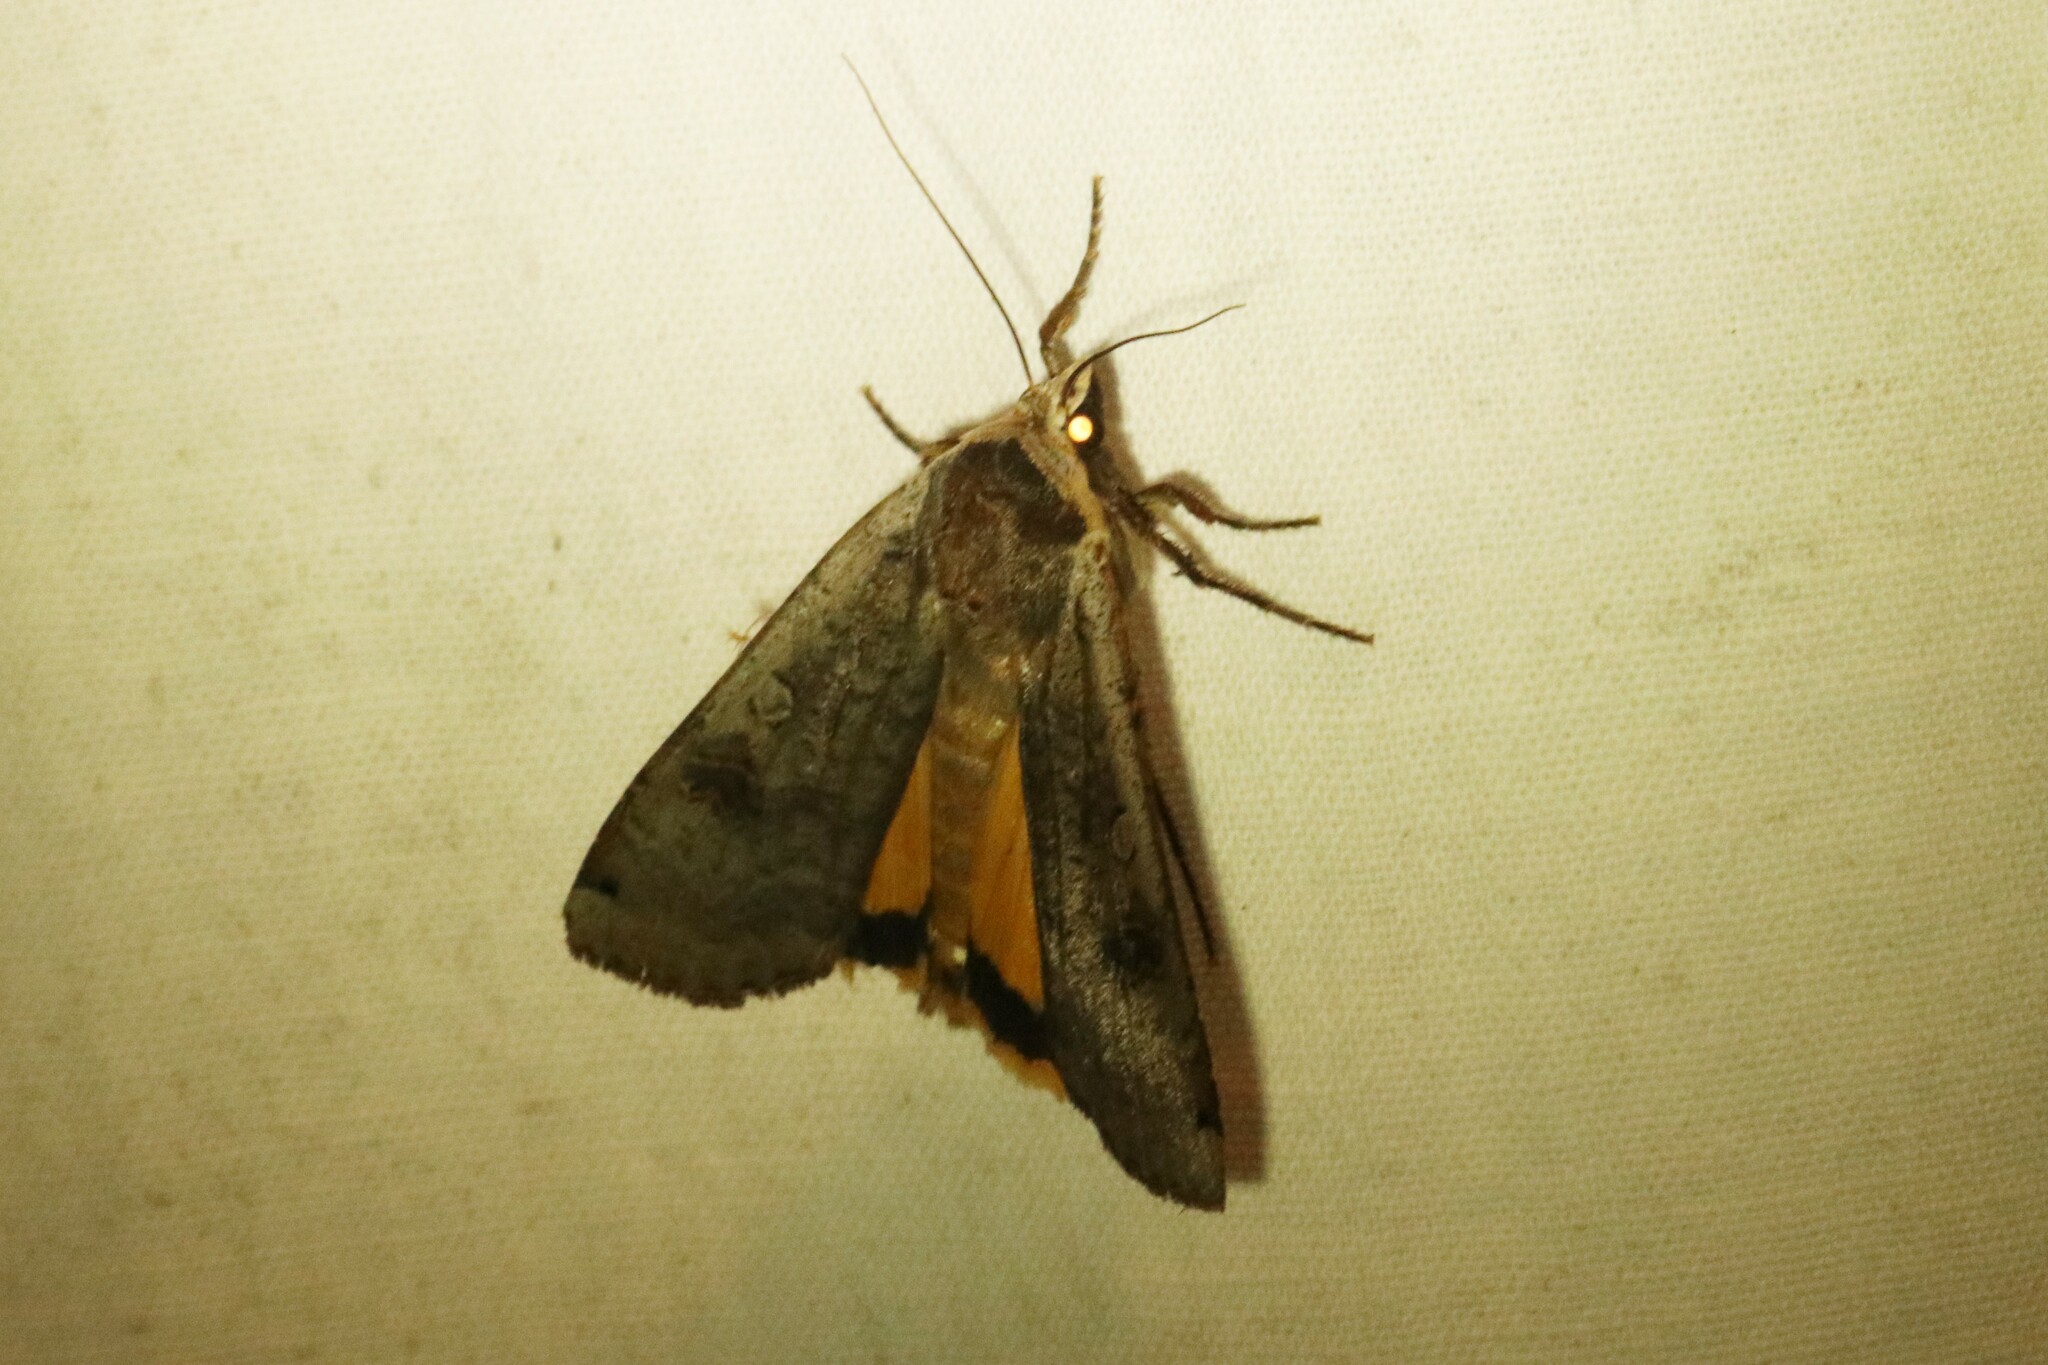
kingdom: Animalia
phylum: Arthropoda
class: Insecta
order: Lepidoptera
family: Noctuidae
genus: Noctua
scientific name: Noctua pronuba
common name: Large yellow underwing
